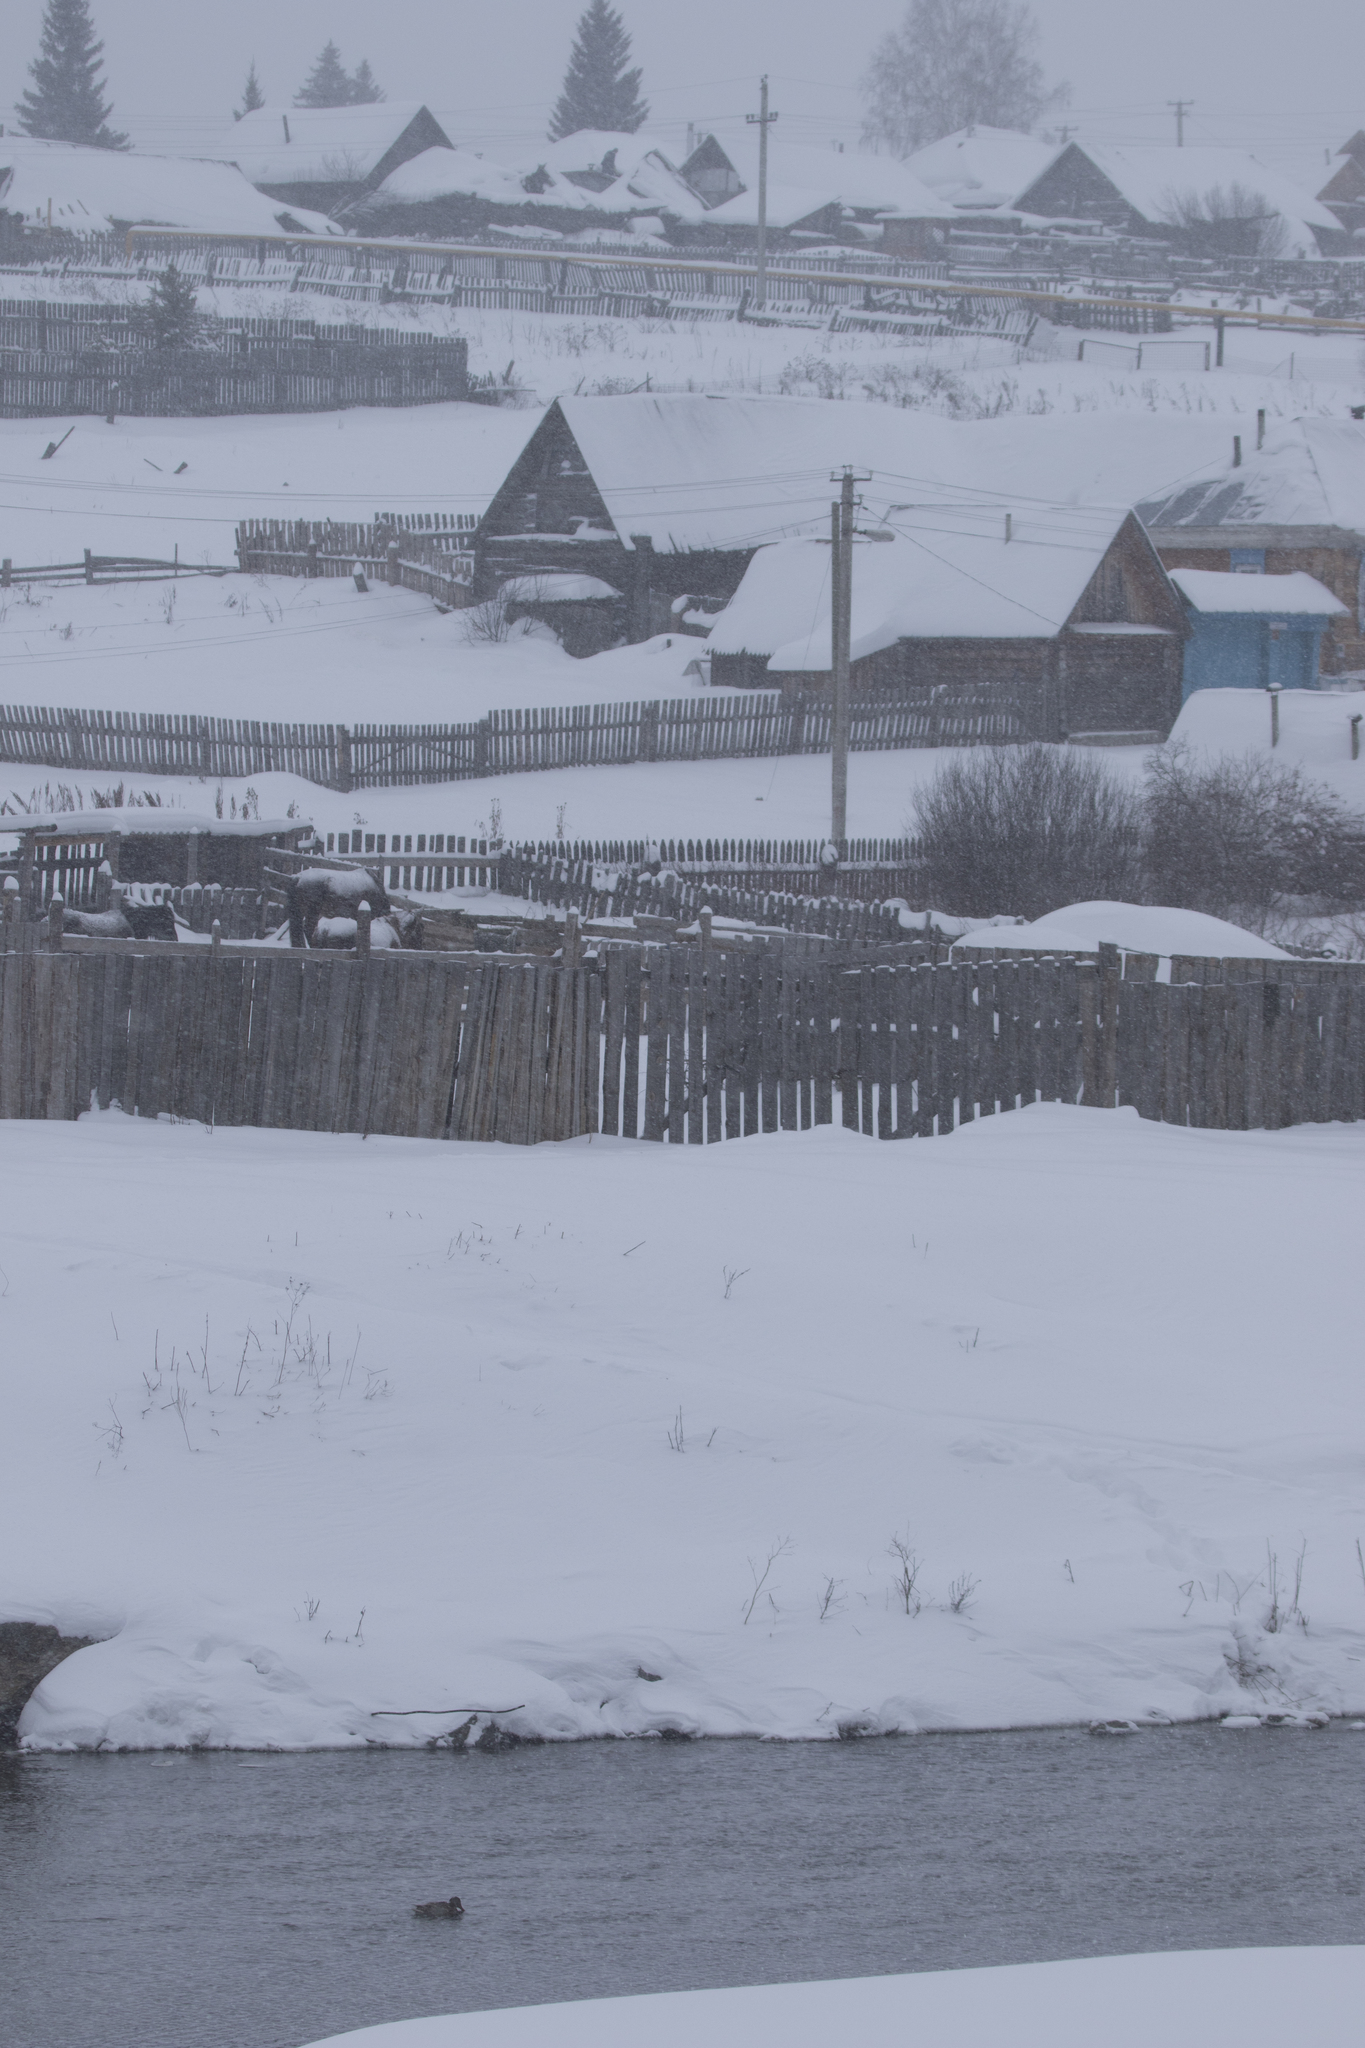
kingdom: Animalia
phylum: Chordata
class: Aves
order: Anseriformes
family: Anatidae
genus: Anas
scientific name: Anas platyrhynchos
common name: Mallard
